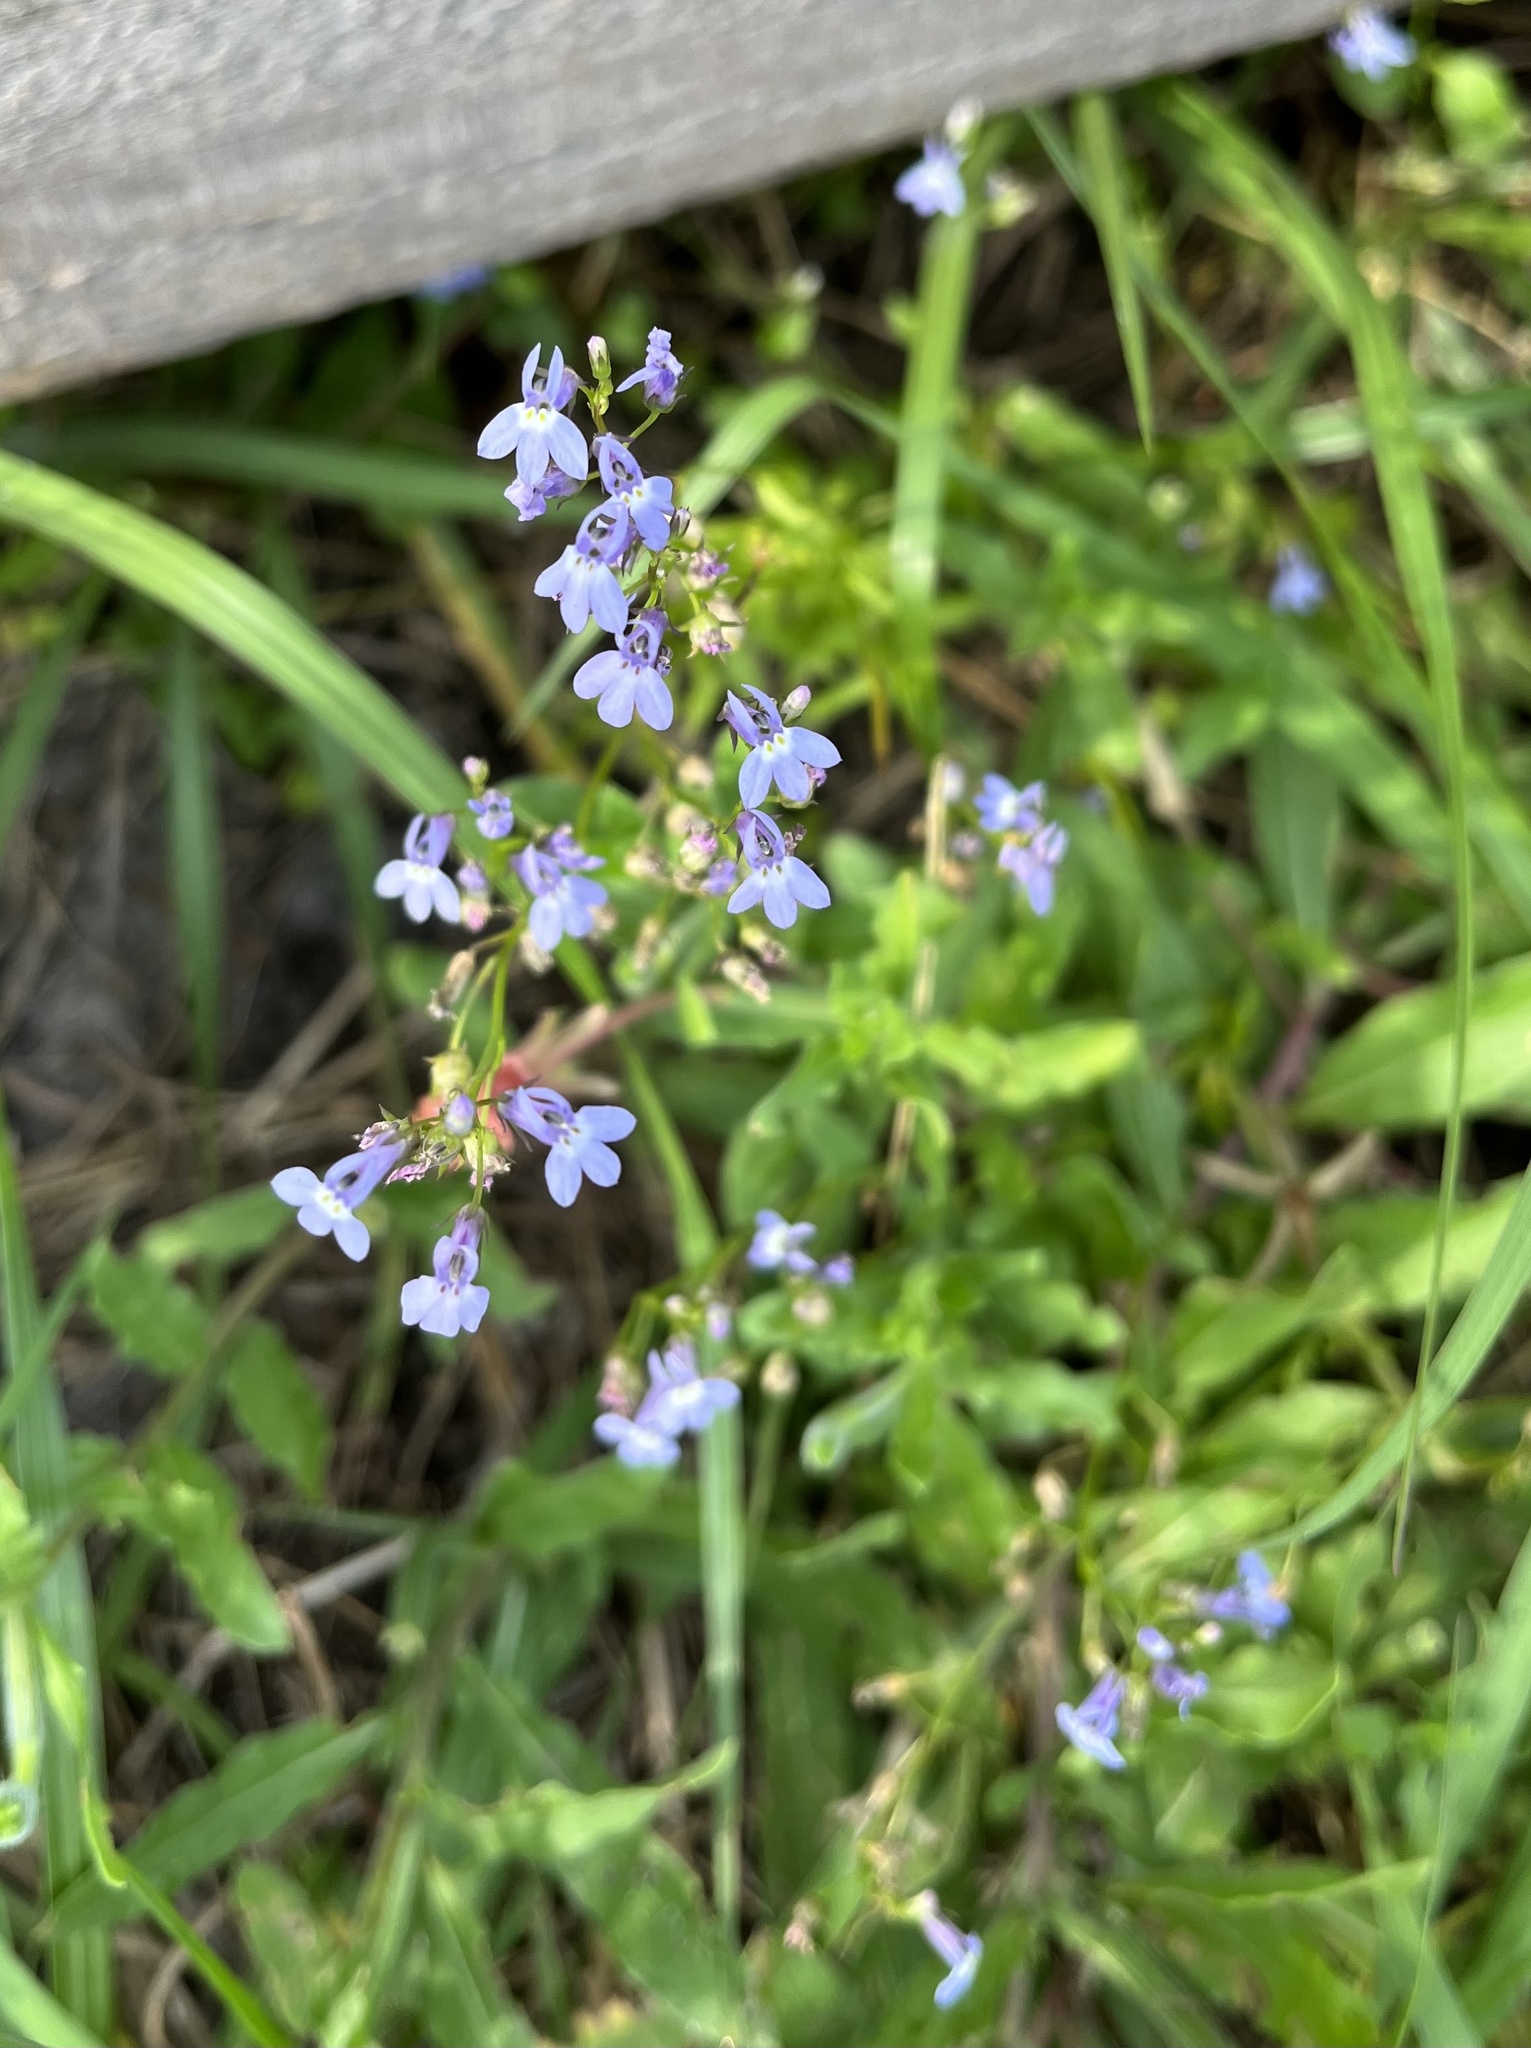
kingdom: Plantae
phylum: Tracheophyta
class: Magnoliopsida
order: Asterales
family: Campanulaceae
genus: Lobelia
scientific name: Lobelia homophylla
